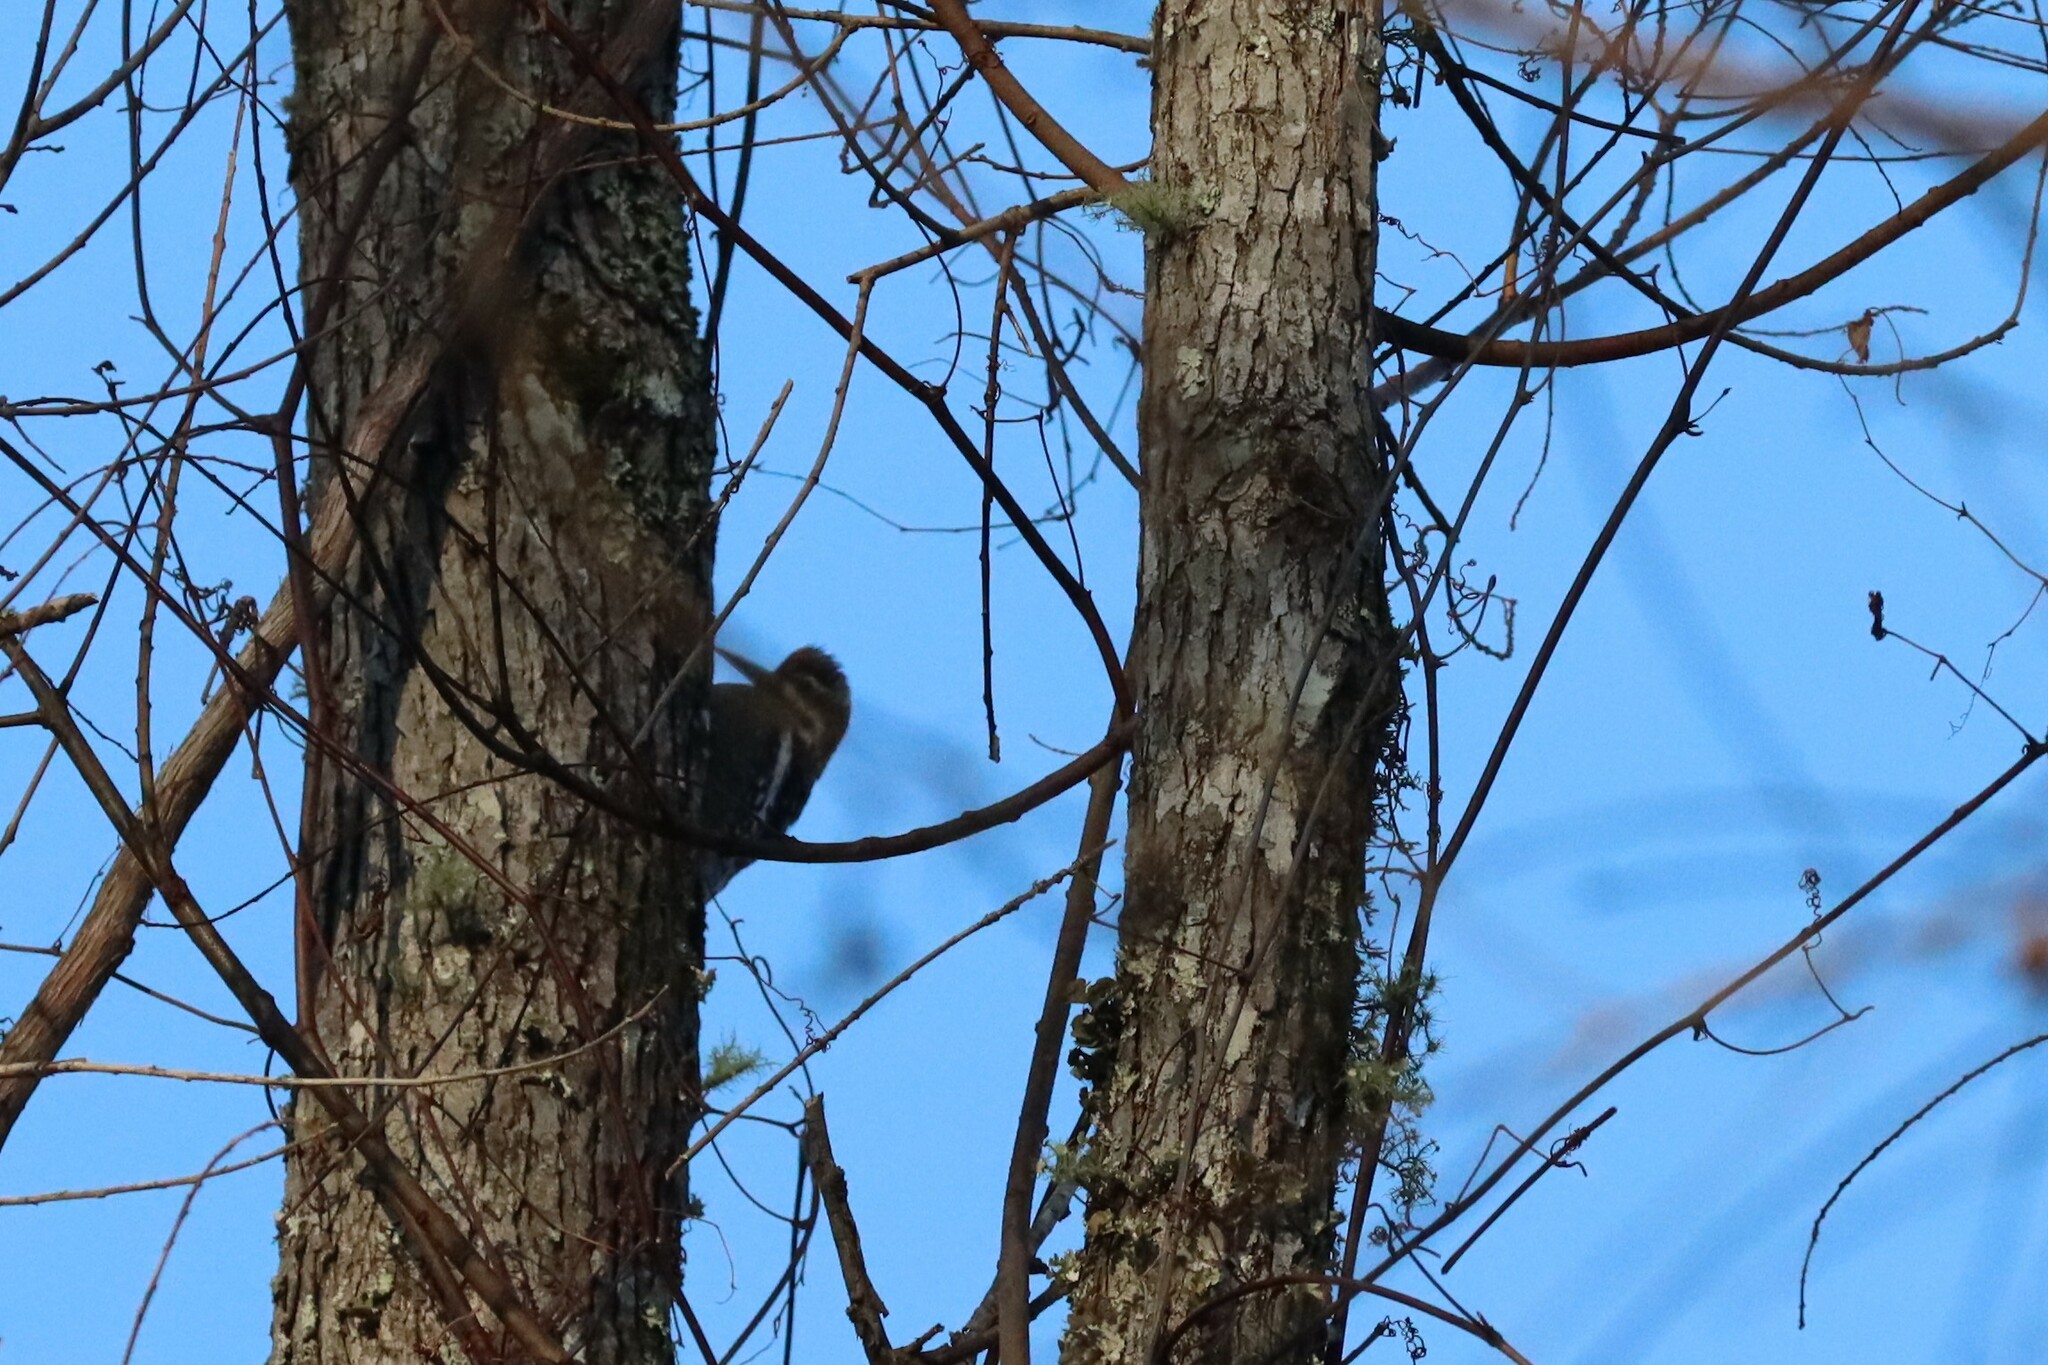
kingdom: Animalia
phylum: Chordata
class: Aves
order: Piciformes
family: Picidae
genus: Sphyrapicus
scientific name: Sphyrapicus varius
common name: Yellow-bellied sapsucker
